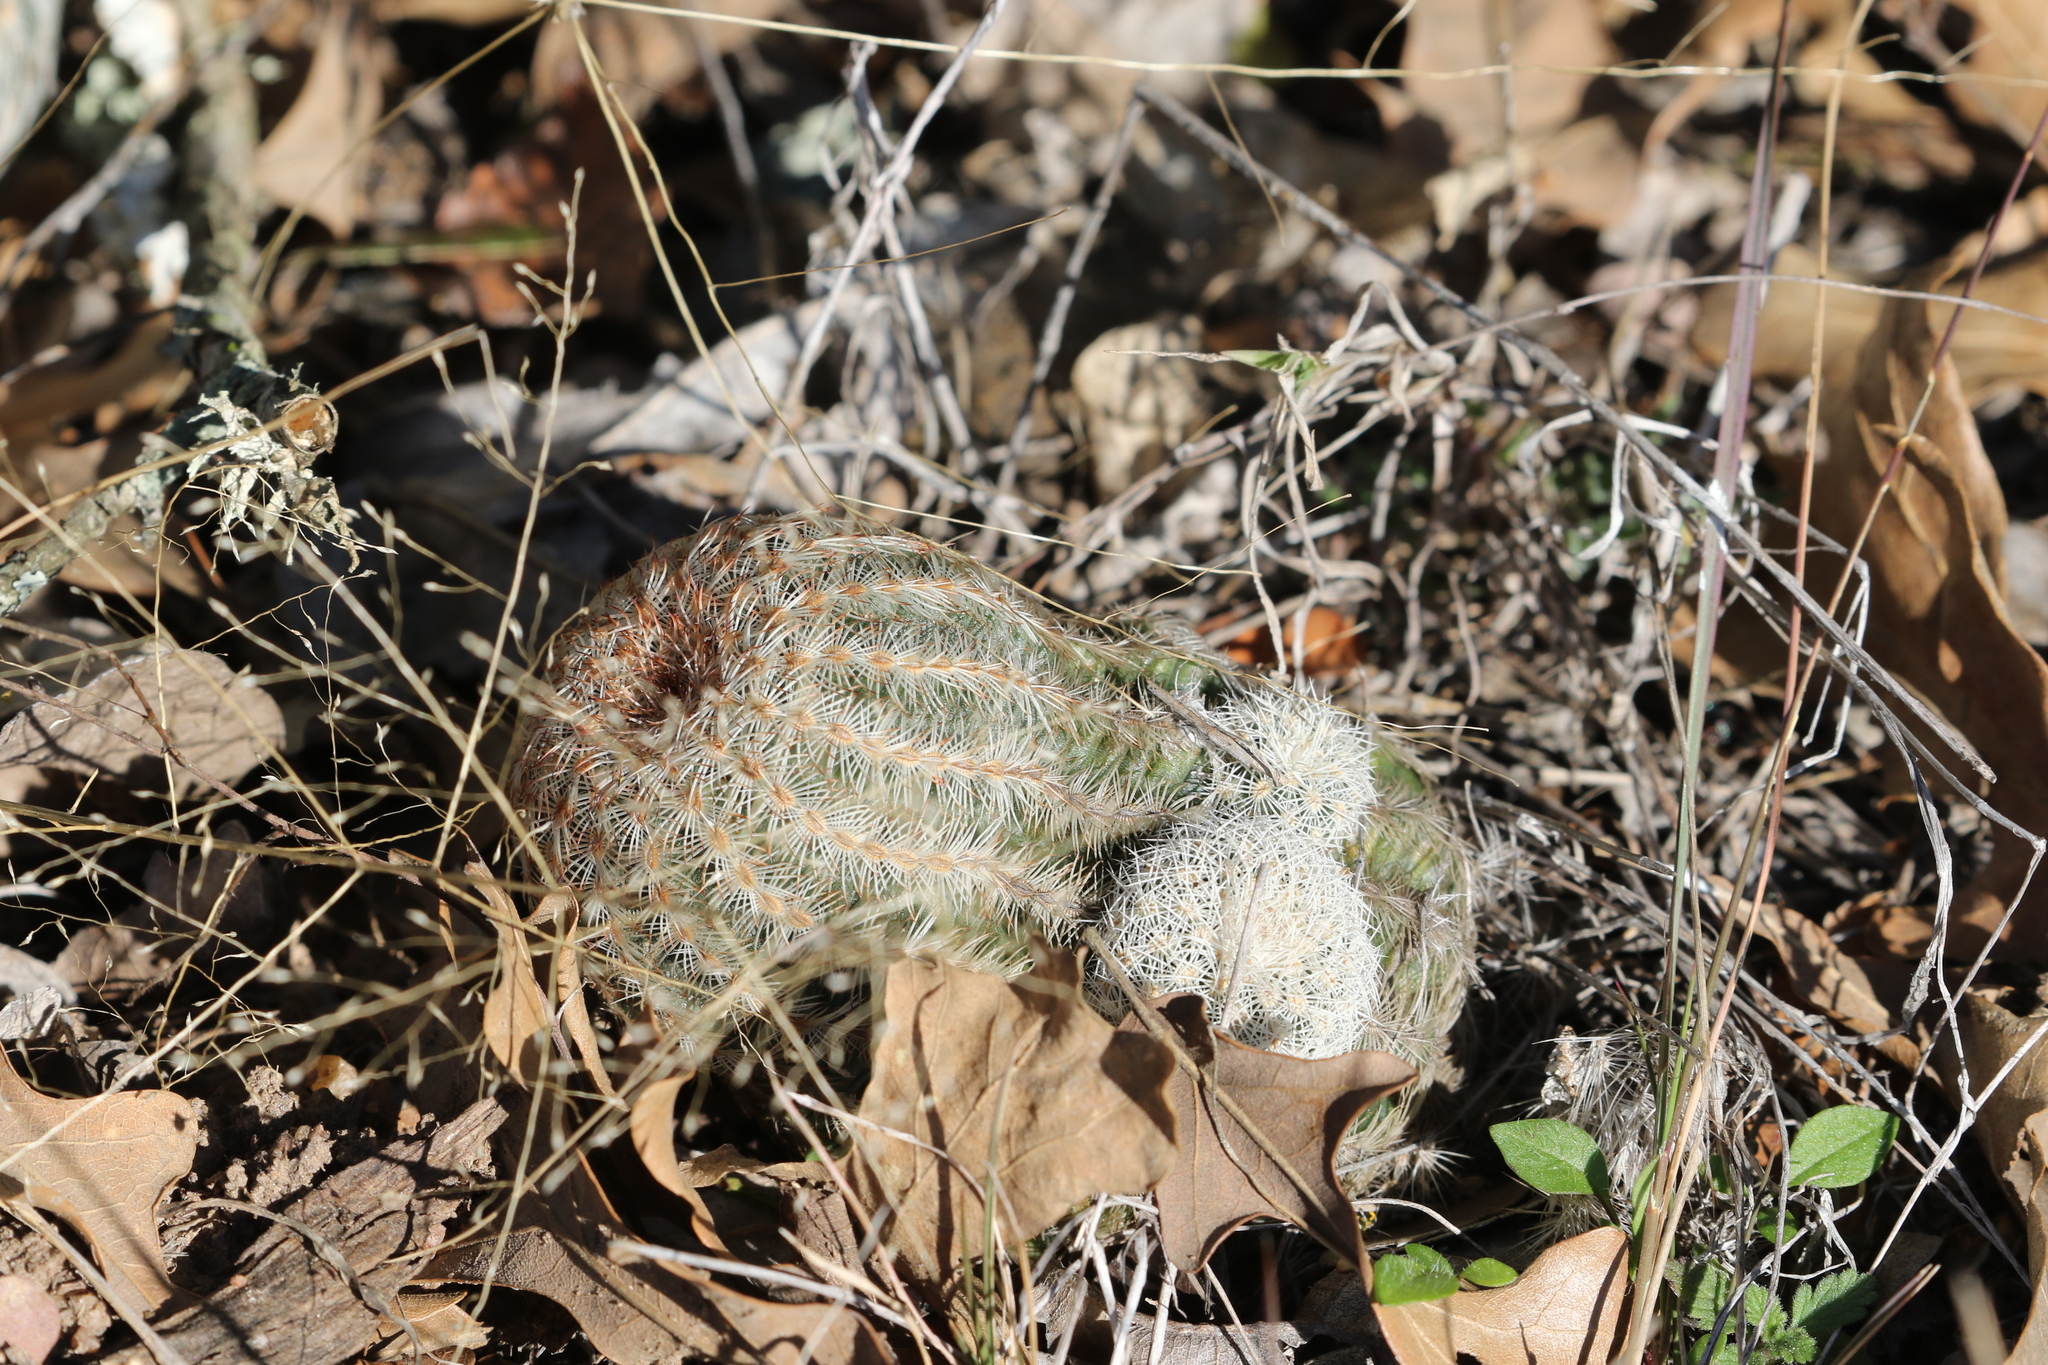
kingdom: Plantae
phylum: Tracheophyta
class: Magnoliopsida
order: Caryophyllales
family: Cactaceae
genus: Echinocereus
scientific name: Echinocereus reichenbachii
